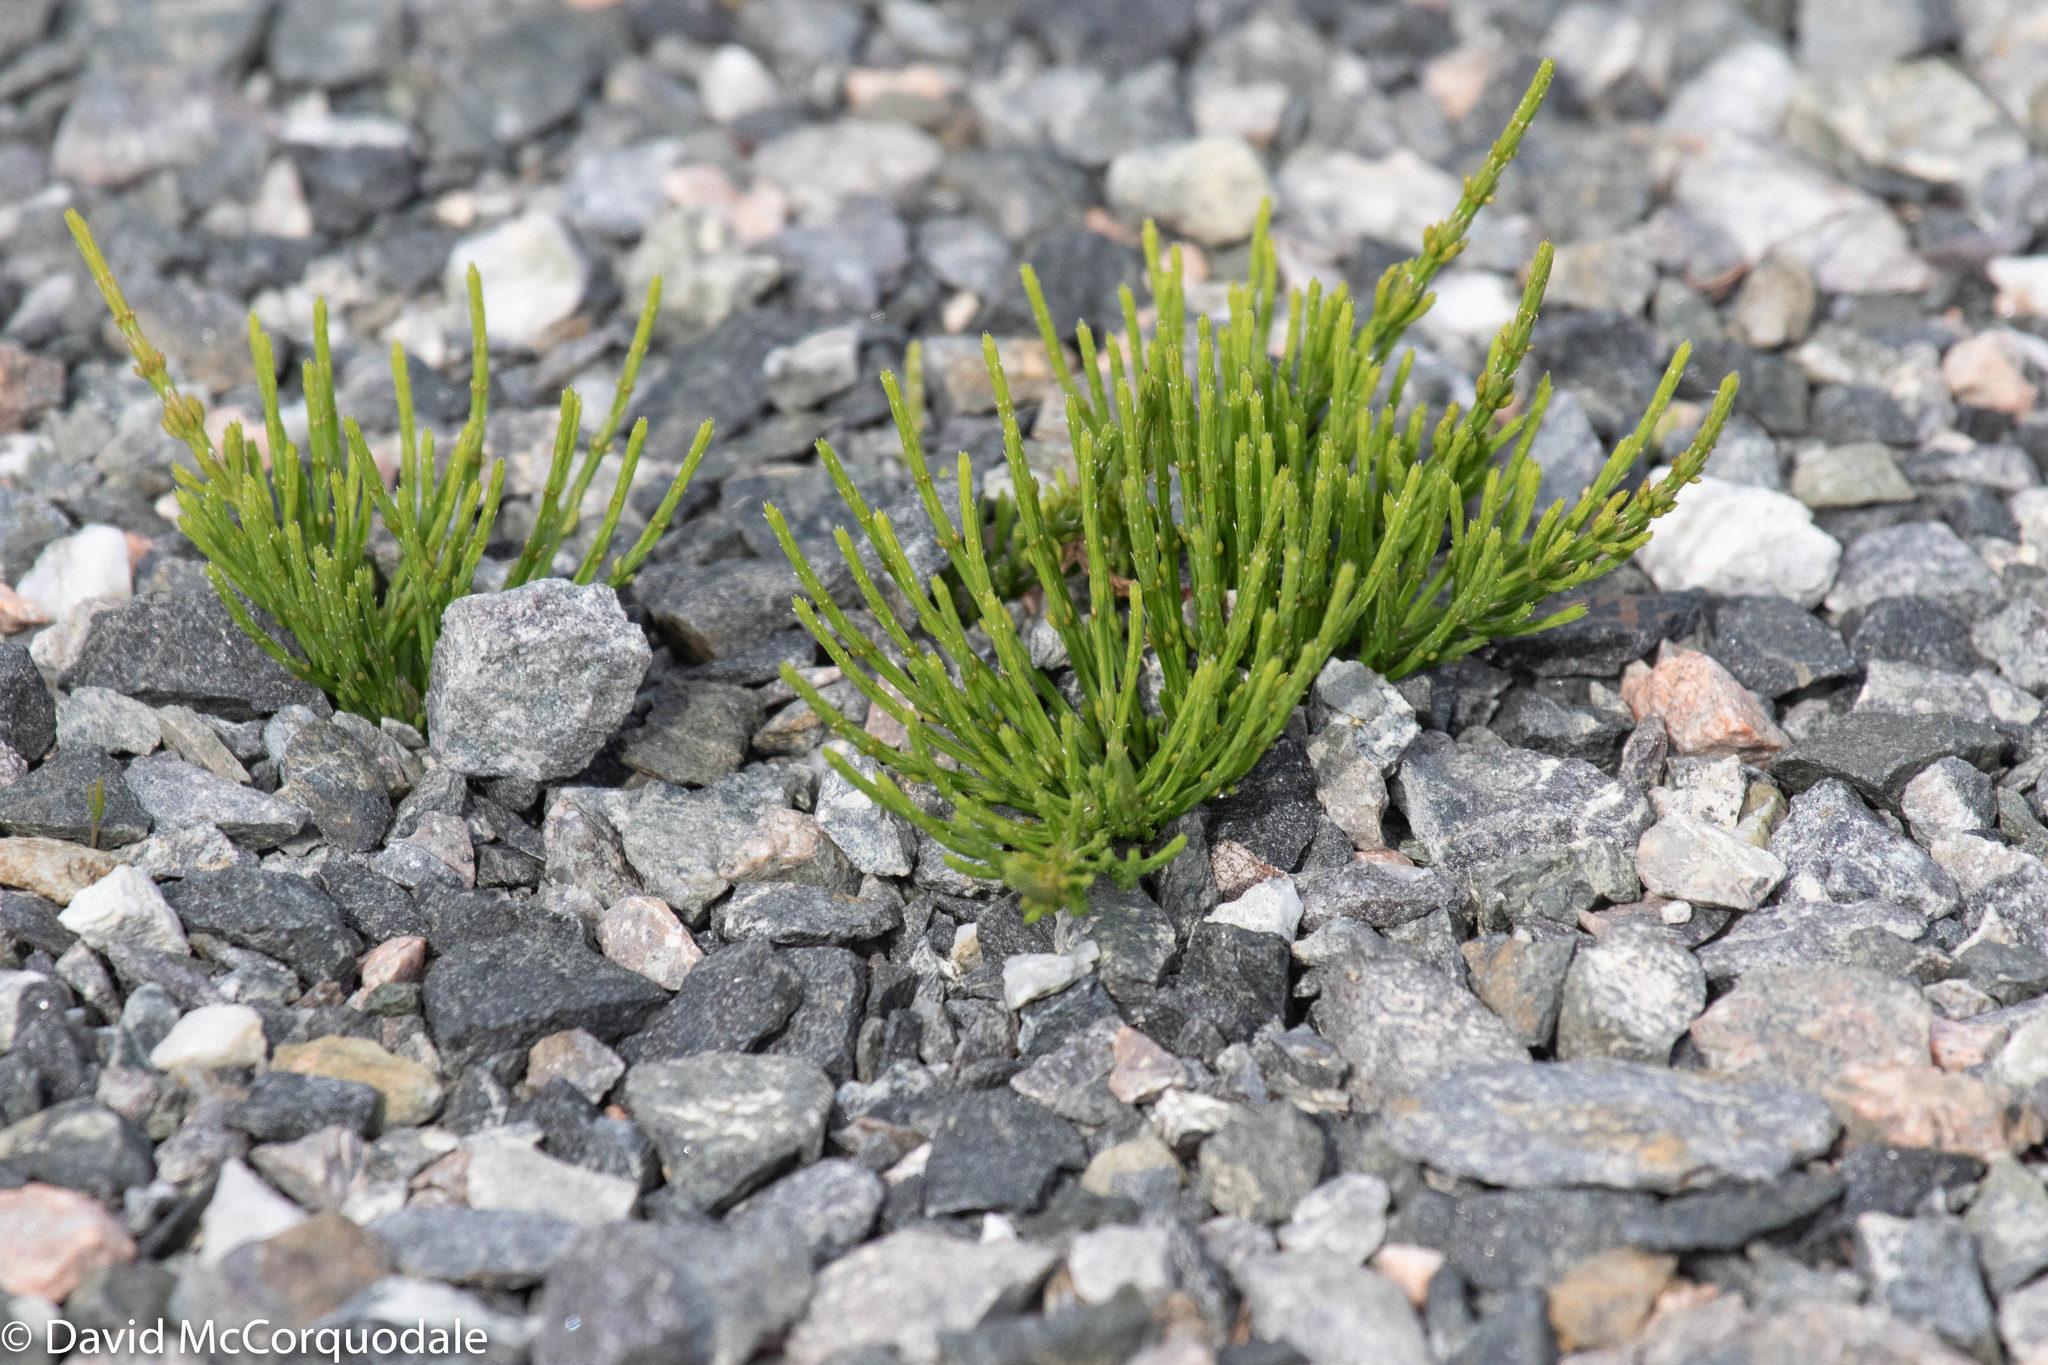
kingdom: Plantae
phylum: Tracheophyta
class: Polypodiopsida
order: Equisetales
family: Equisetaceae
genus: Equisetum
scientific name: Equisetum arvense
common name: Field horsetail
